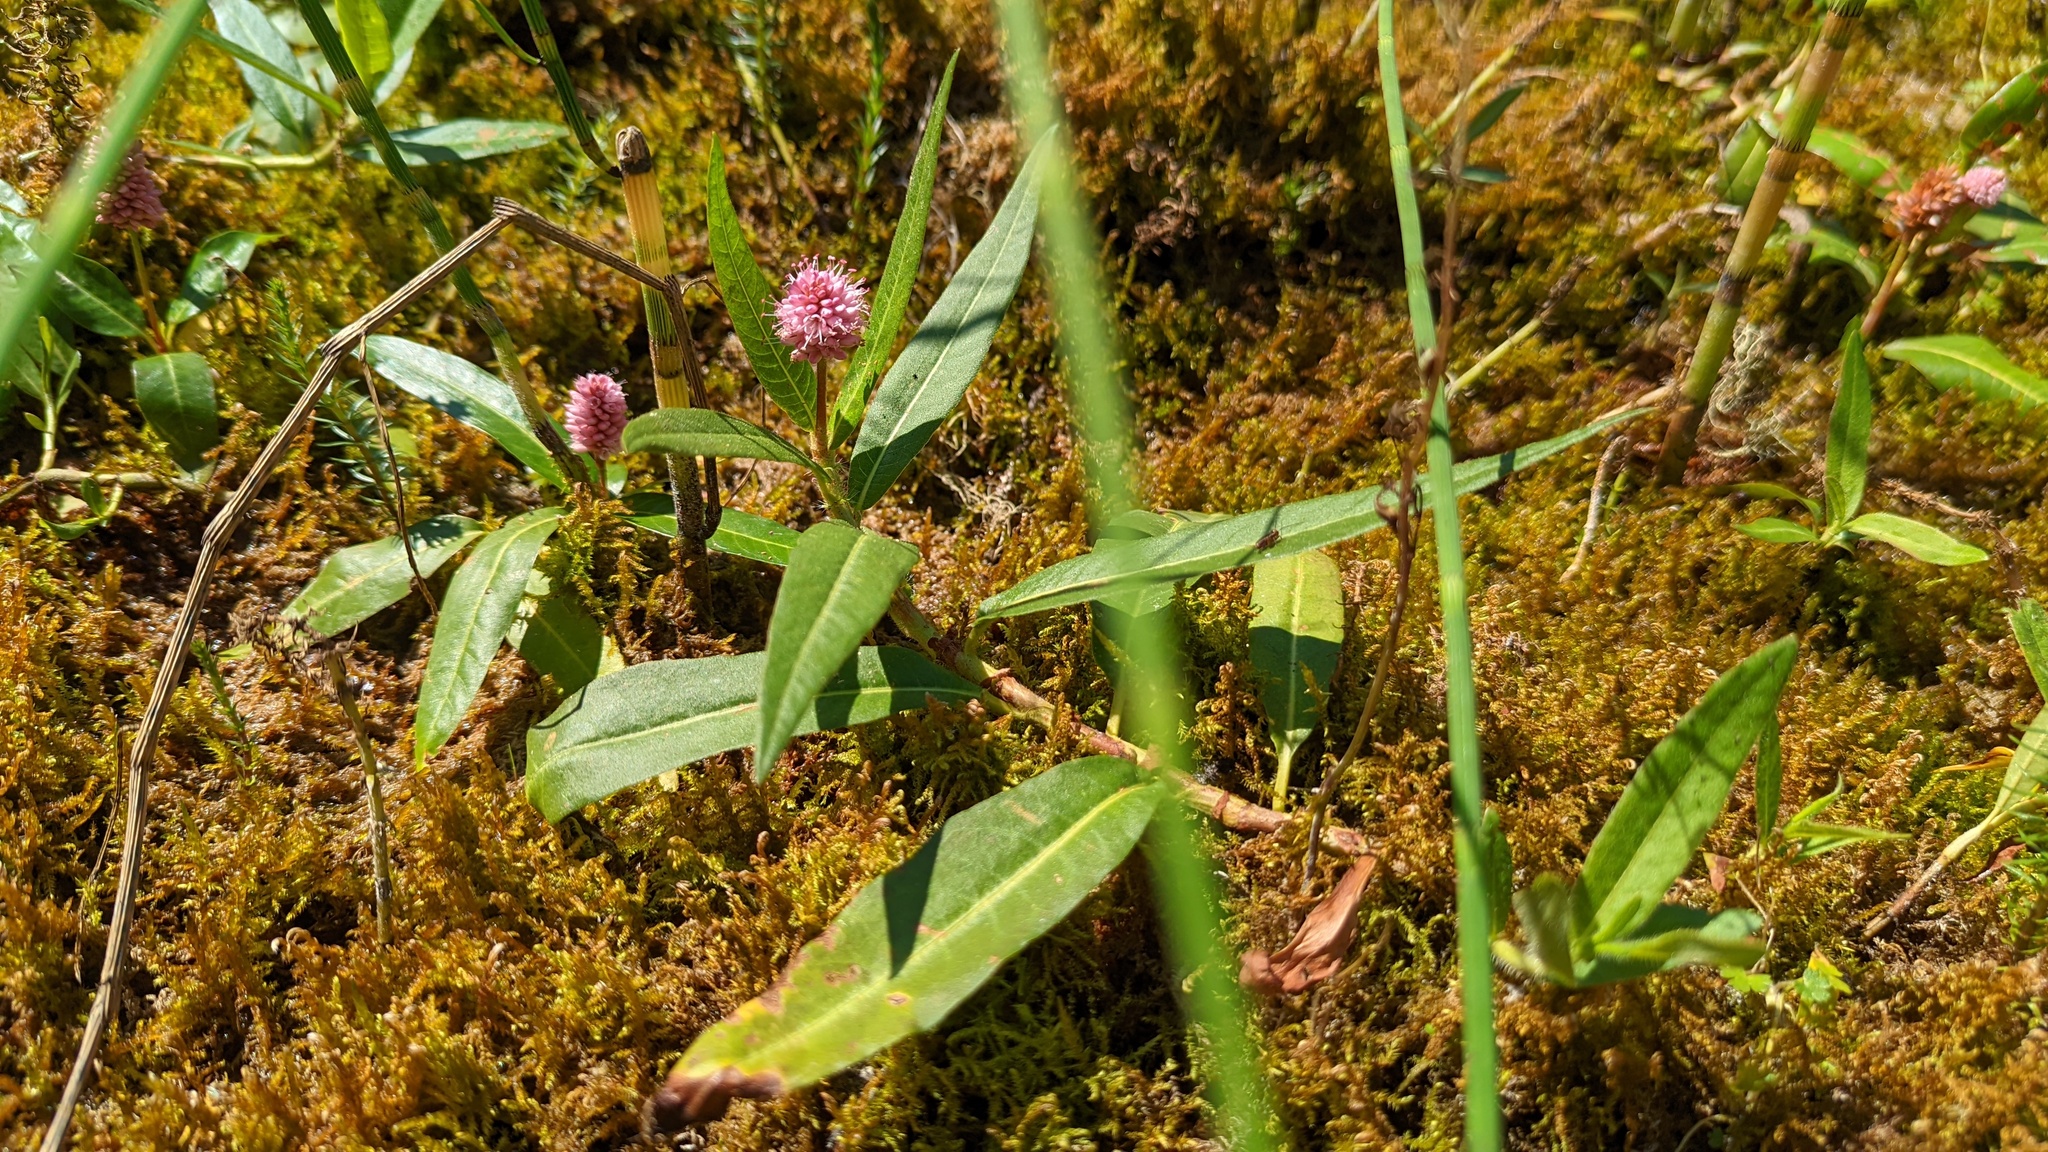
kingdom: Plantae
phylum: Tracheophyta
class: Magnoliopsida
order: Caryophyllales
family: Polygonaceae
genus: Persicaria
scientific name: Persicaria amphibia
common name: Amphibious bistort
